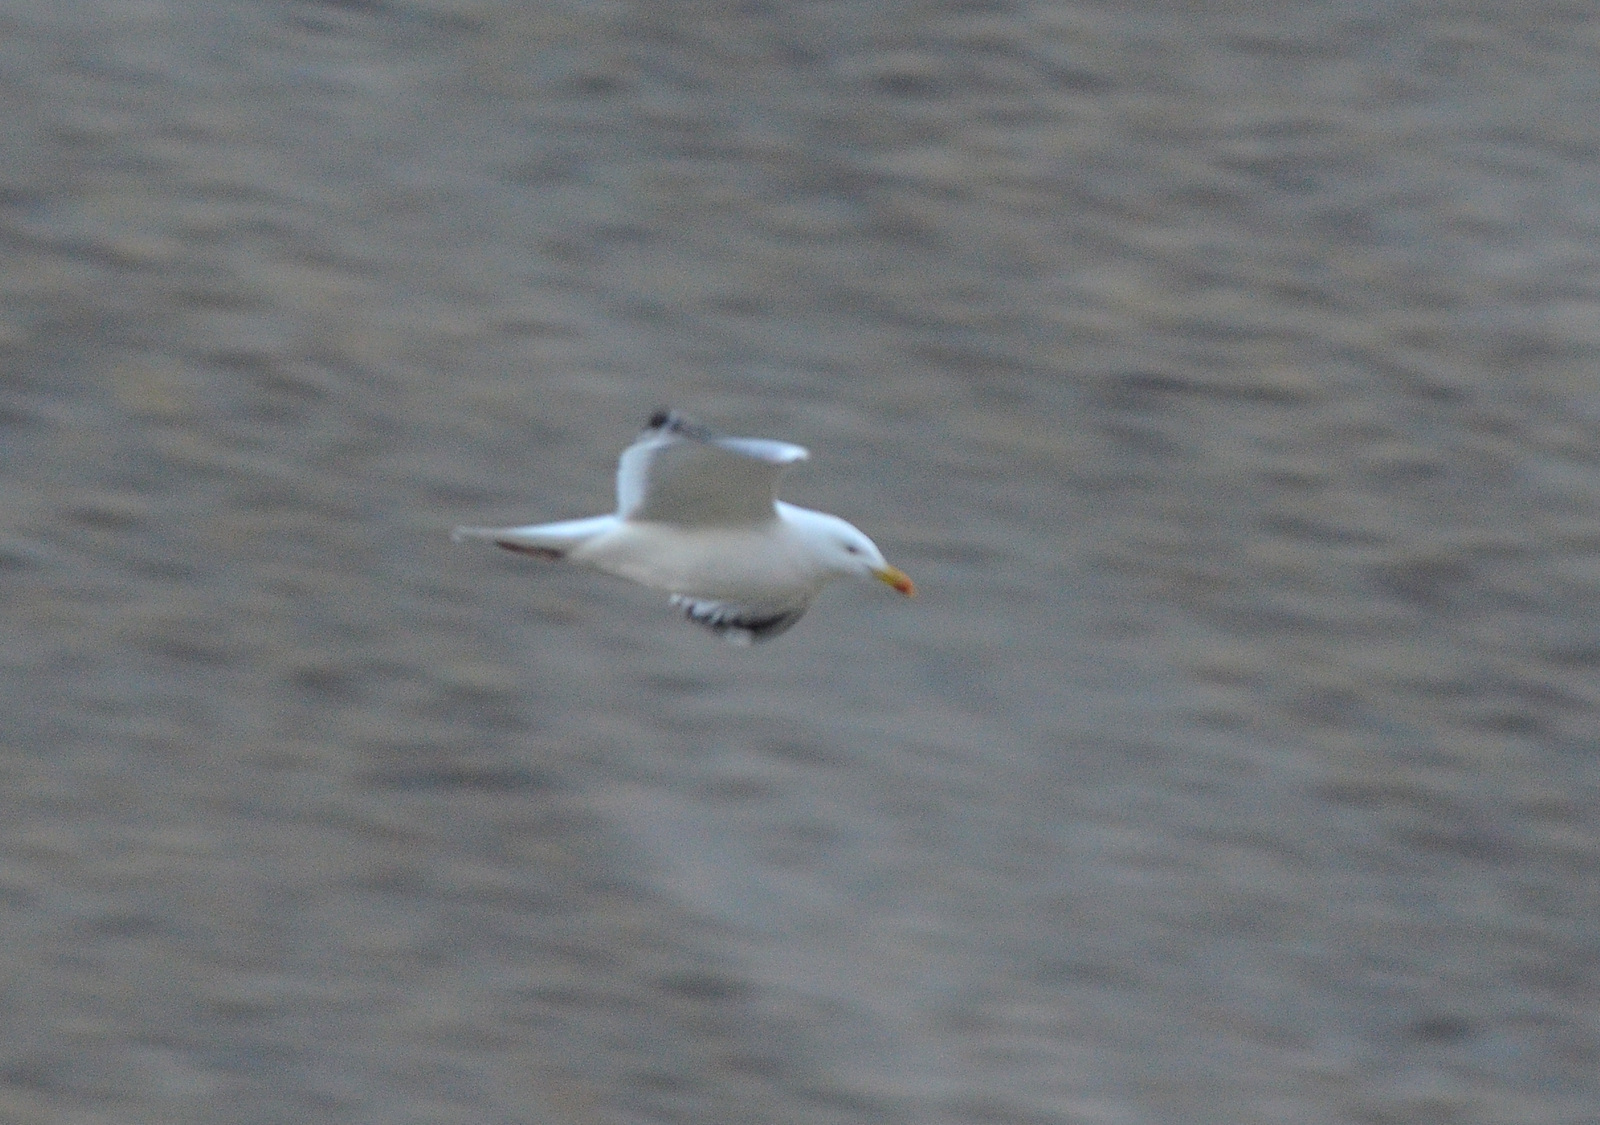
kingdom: Animalia
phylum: Chordata
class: Aves
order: Charadriiformes
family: Laridae
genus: Larus
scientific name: Larus argentatus
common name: Herring gull
